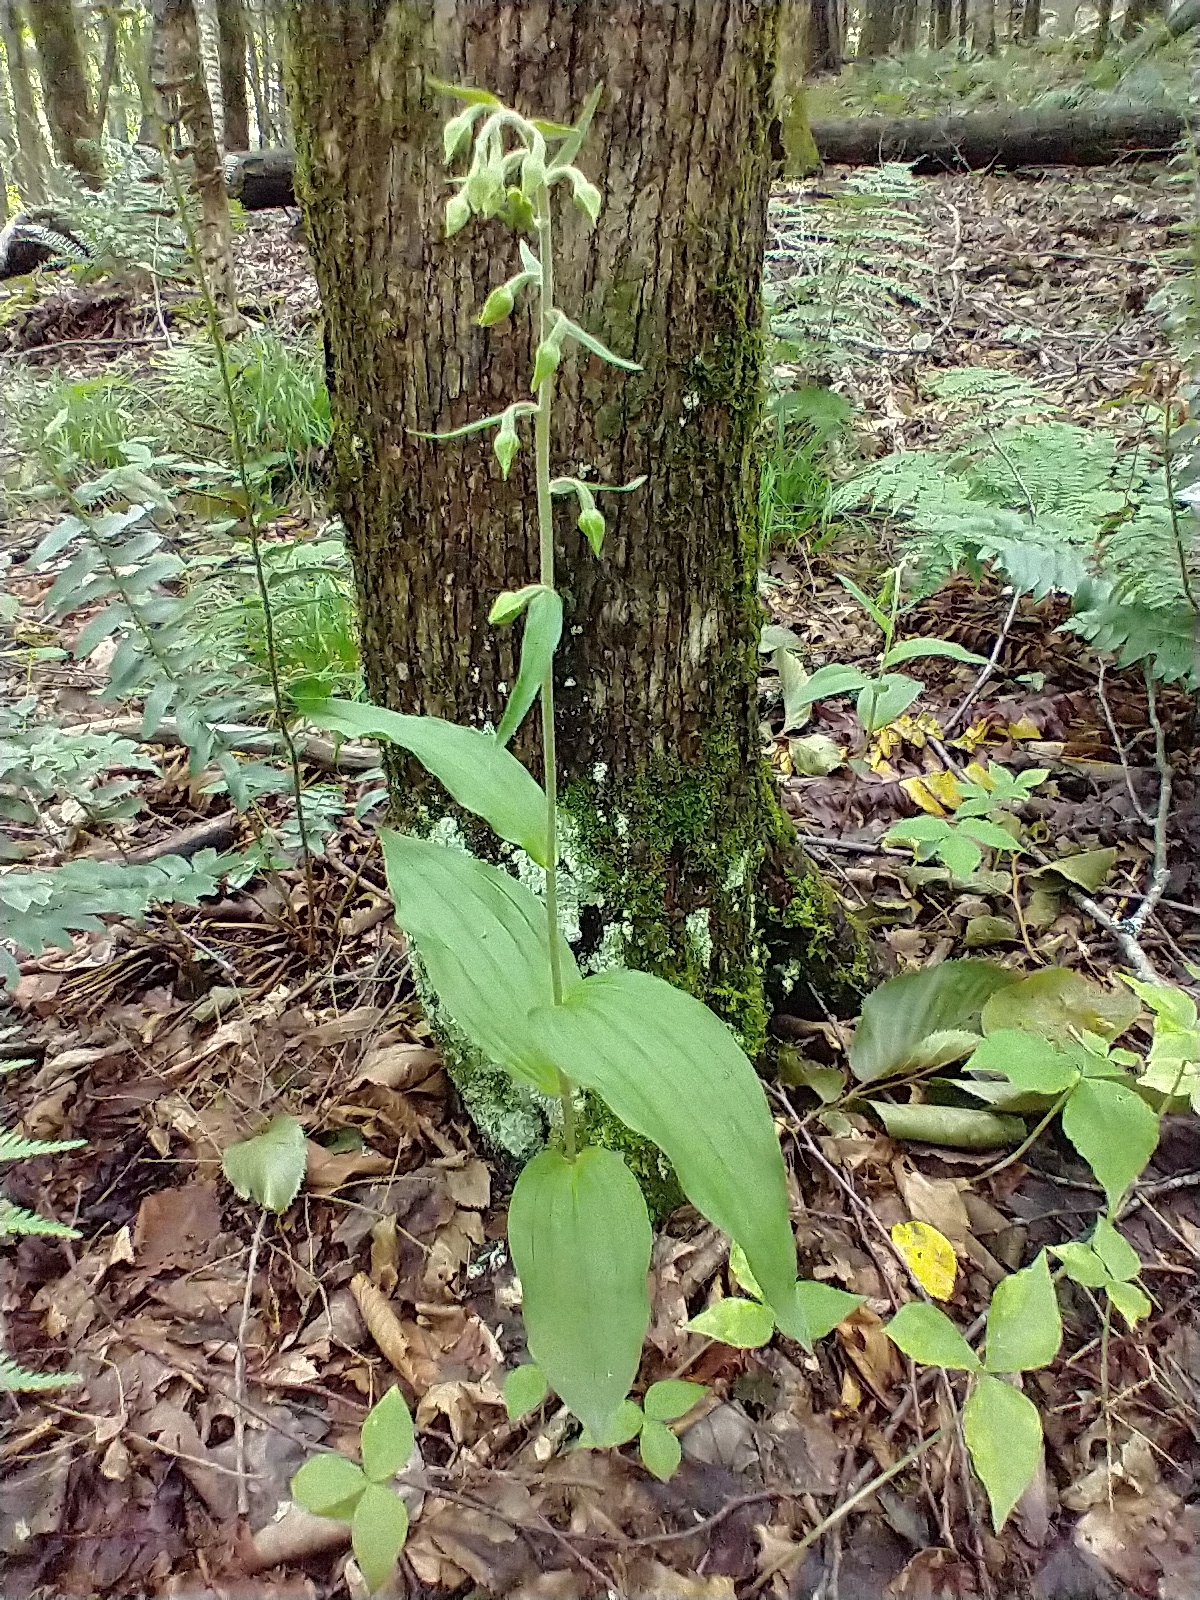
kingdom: Plantae
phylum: Tracheophyta
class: Liliopsida
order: Asparagales
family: Orchidaceae
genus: Epipactis
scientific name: Epipactis helleborine
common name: Broad-leaved helleborine
